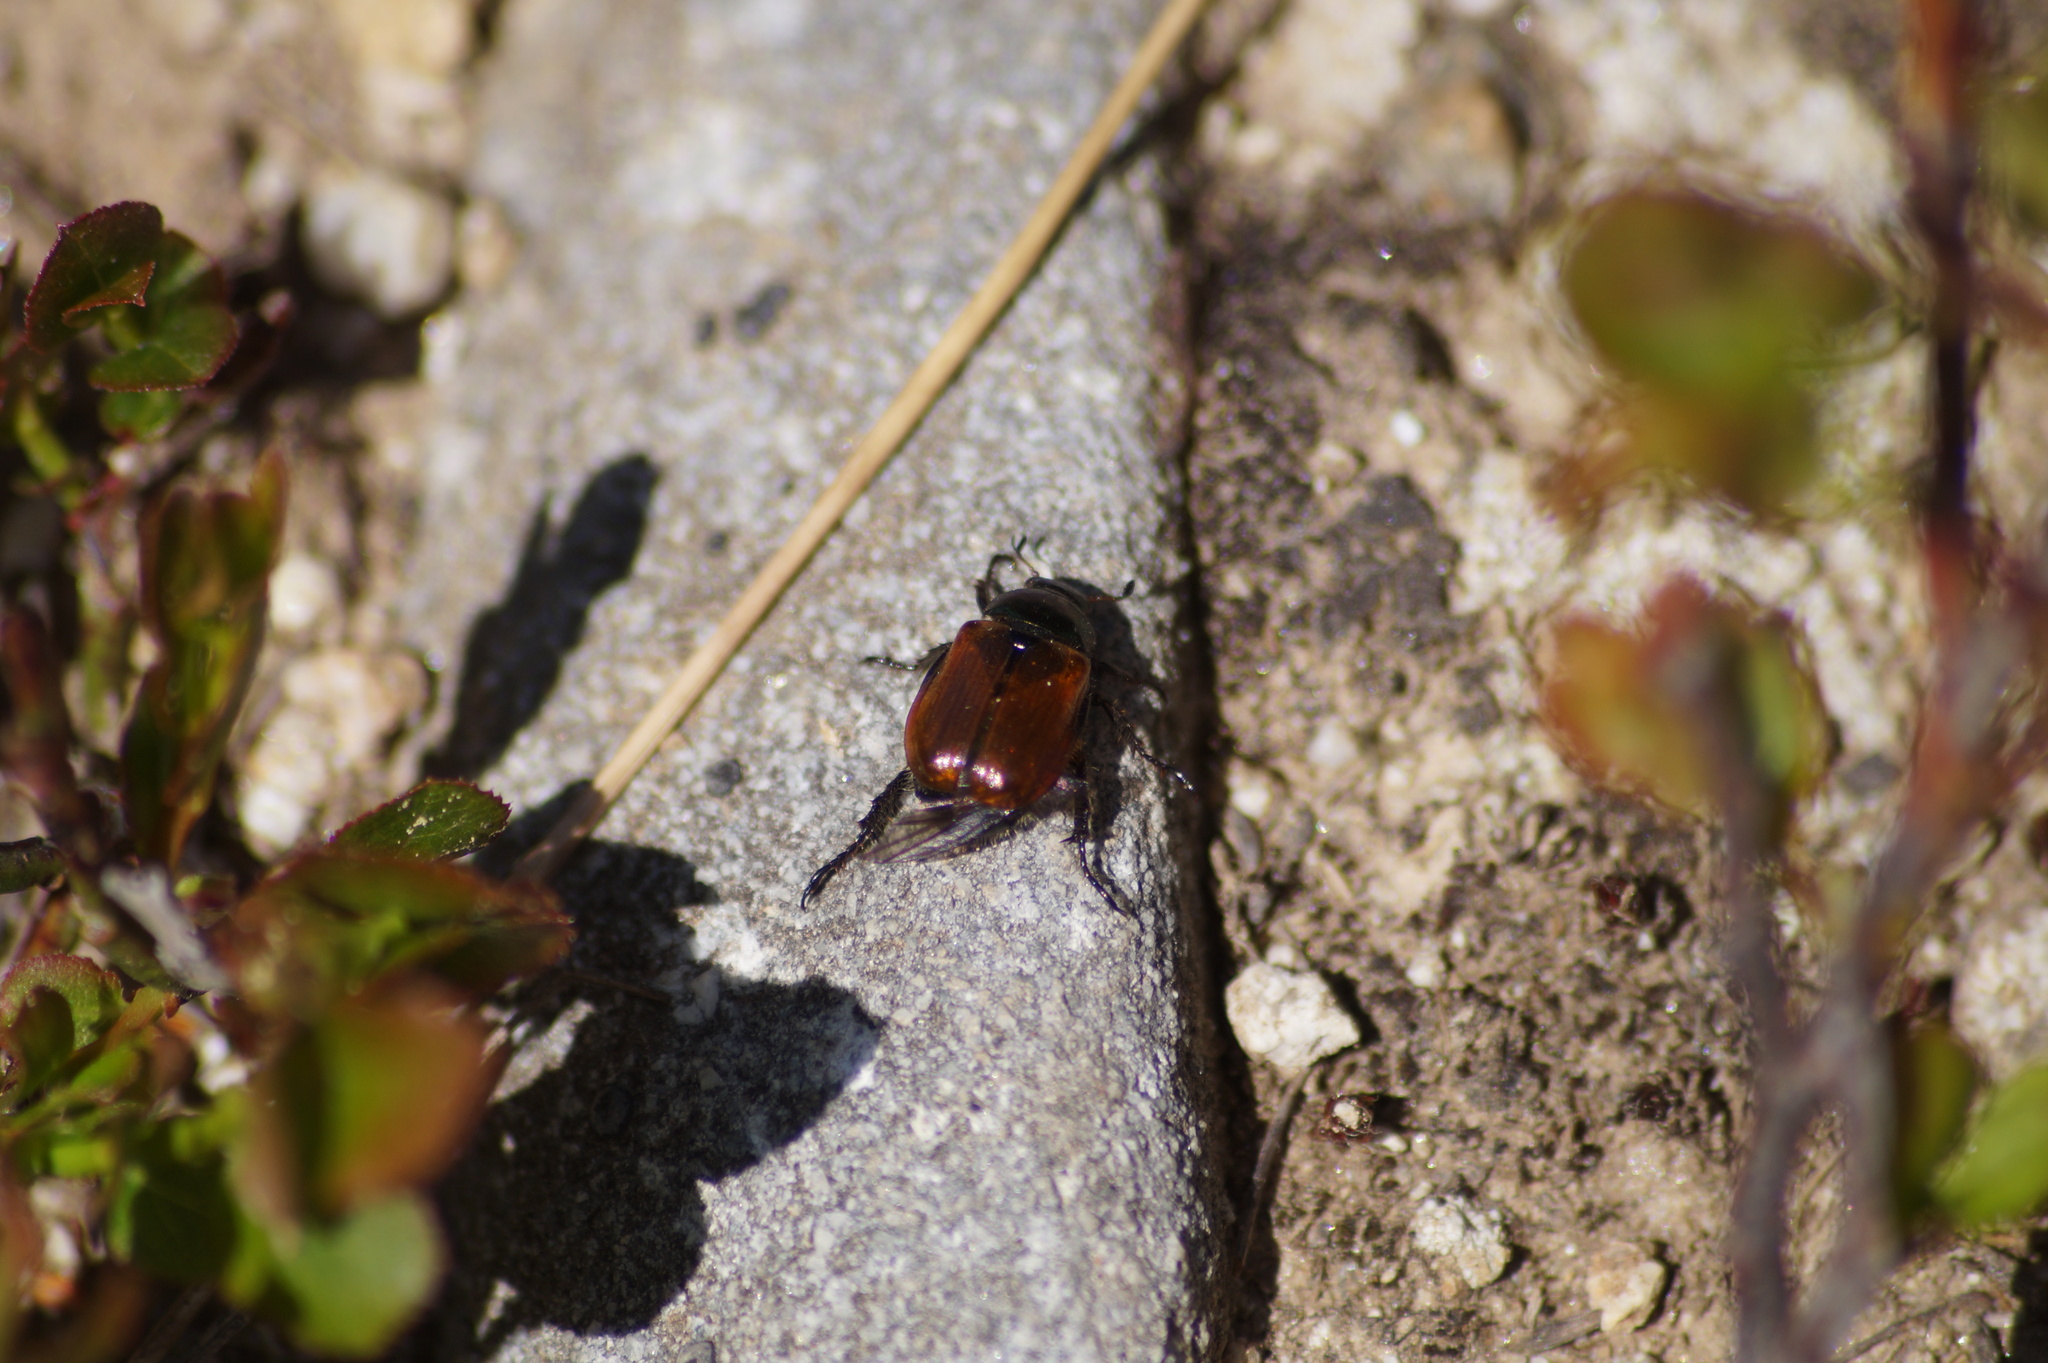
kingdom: Animalia
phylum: Arthropoda
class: Insecta
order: Coleoptera
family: Scarabaeidae
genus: Phyllopertha
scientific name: Phyllopertha horticola
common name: Garden chafer
